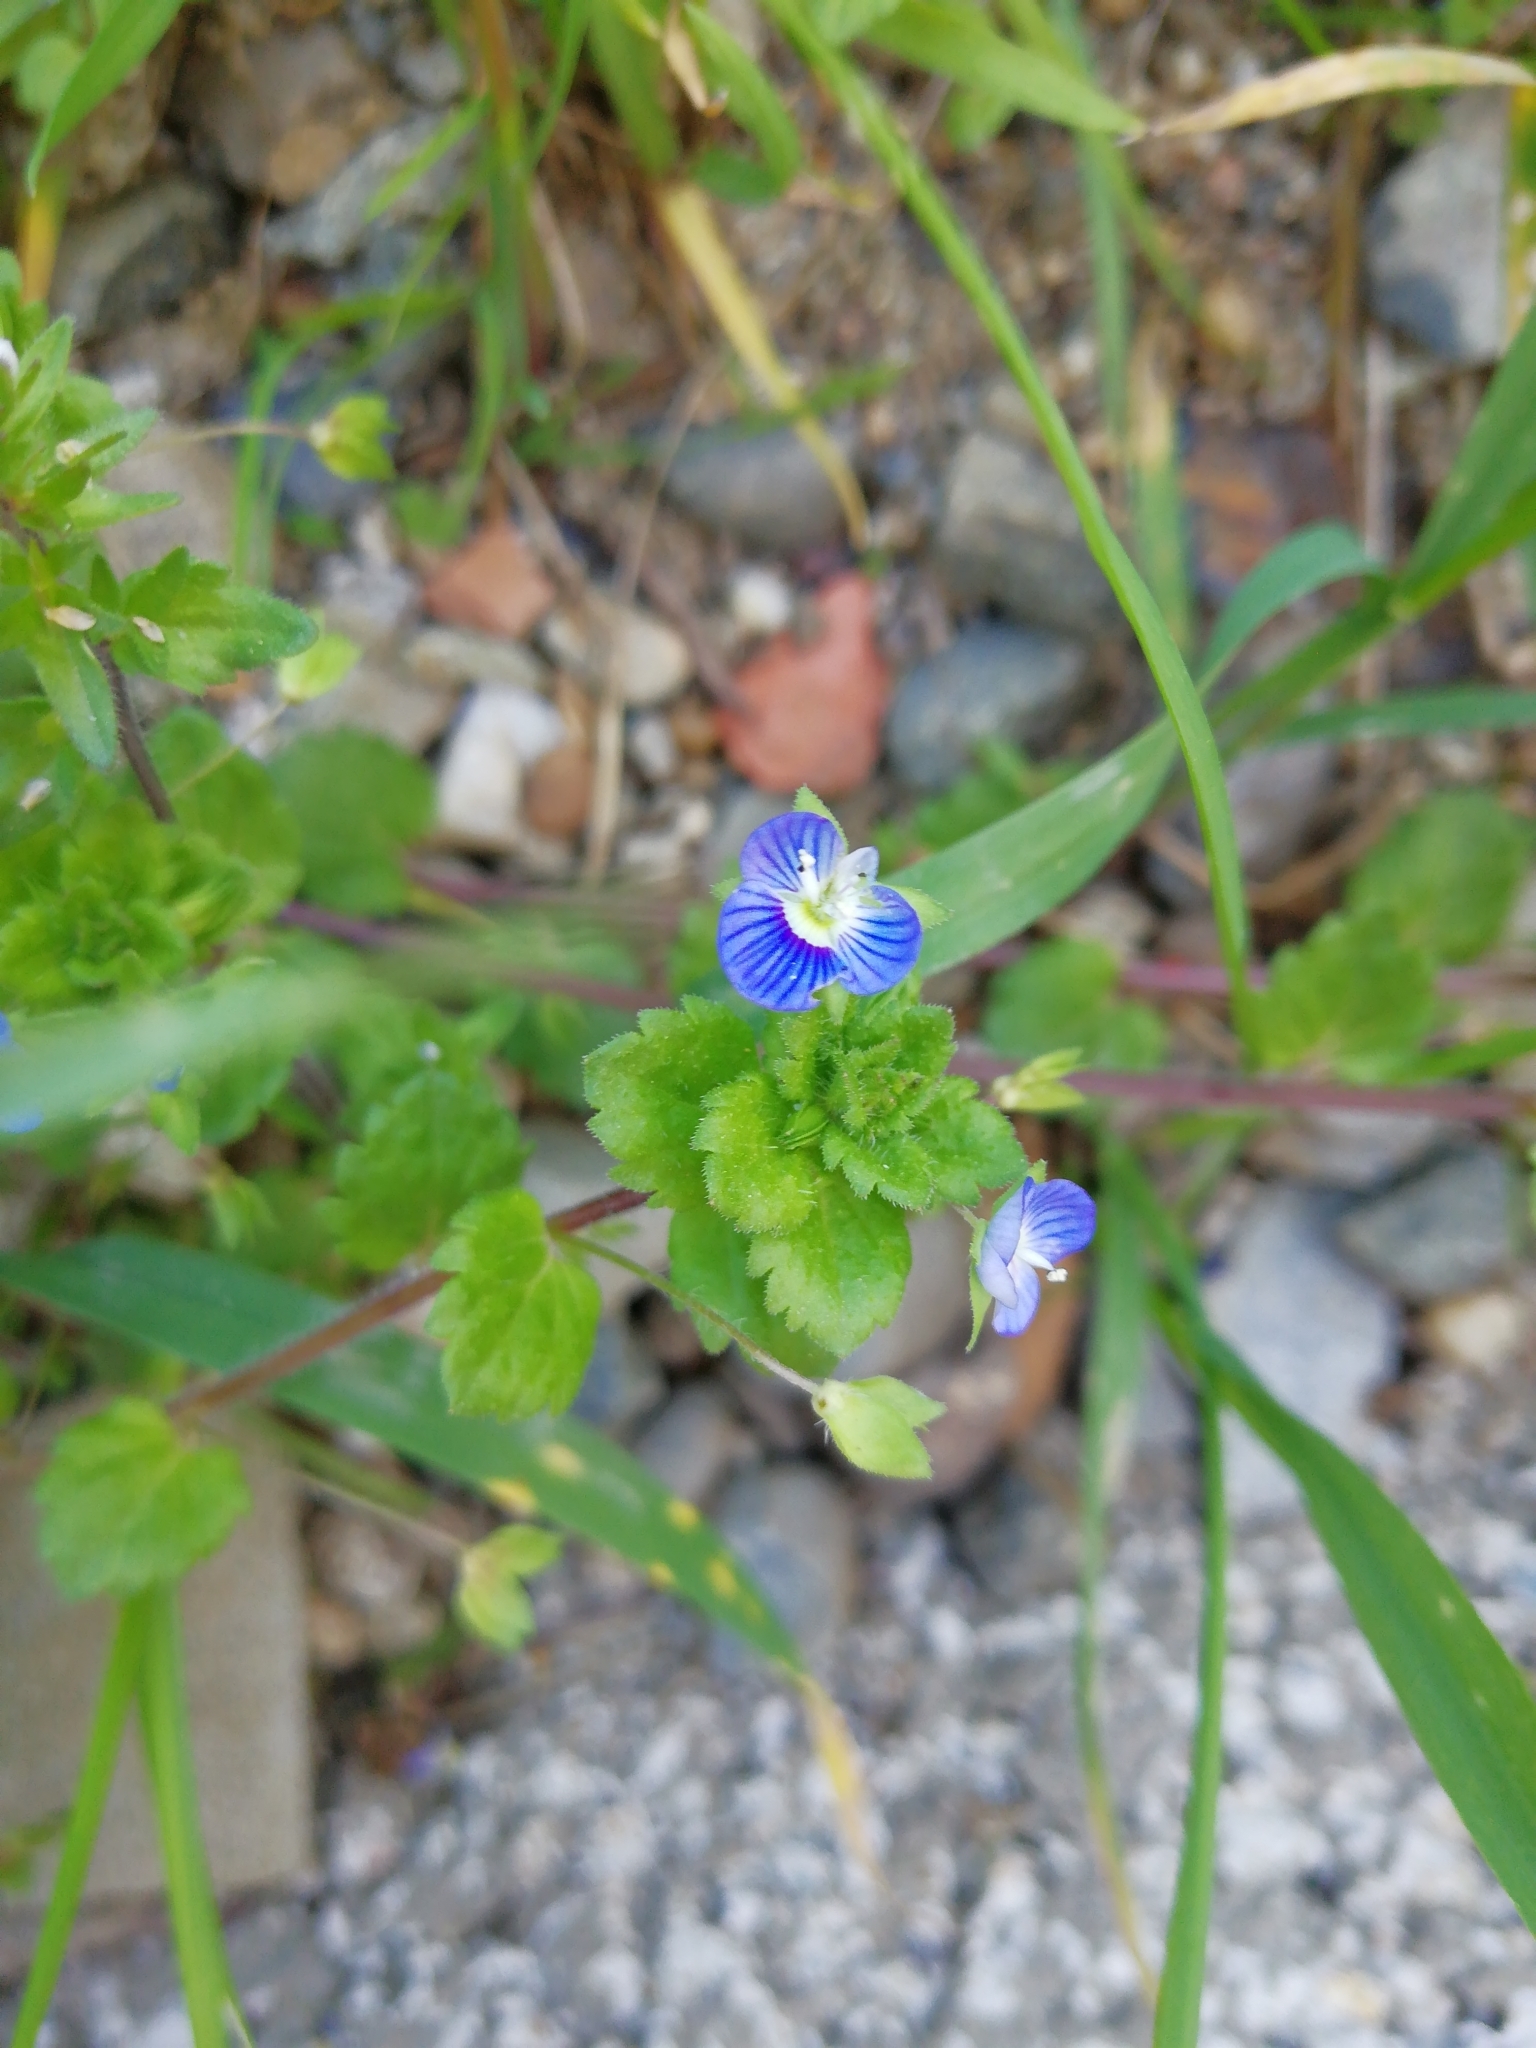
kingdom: Plantae
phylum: Tracheophyta
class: Magnoliopsida
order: Lamiales
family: Plantaginaceae
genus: Veronica
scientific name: Veronica persica
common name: Common field-speedwell
